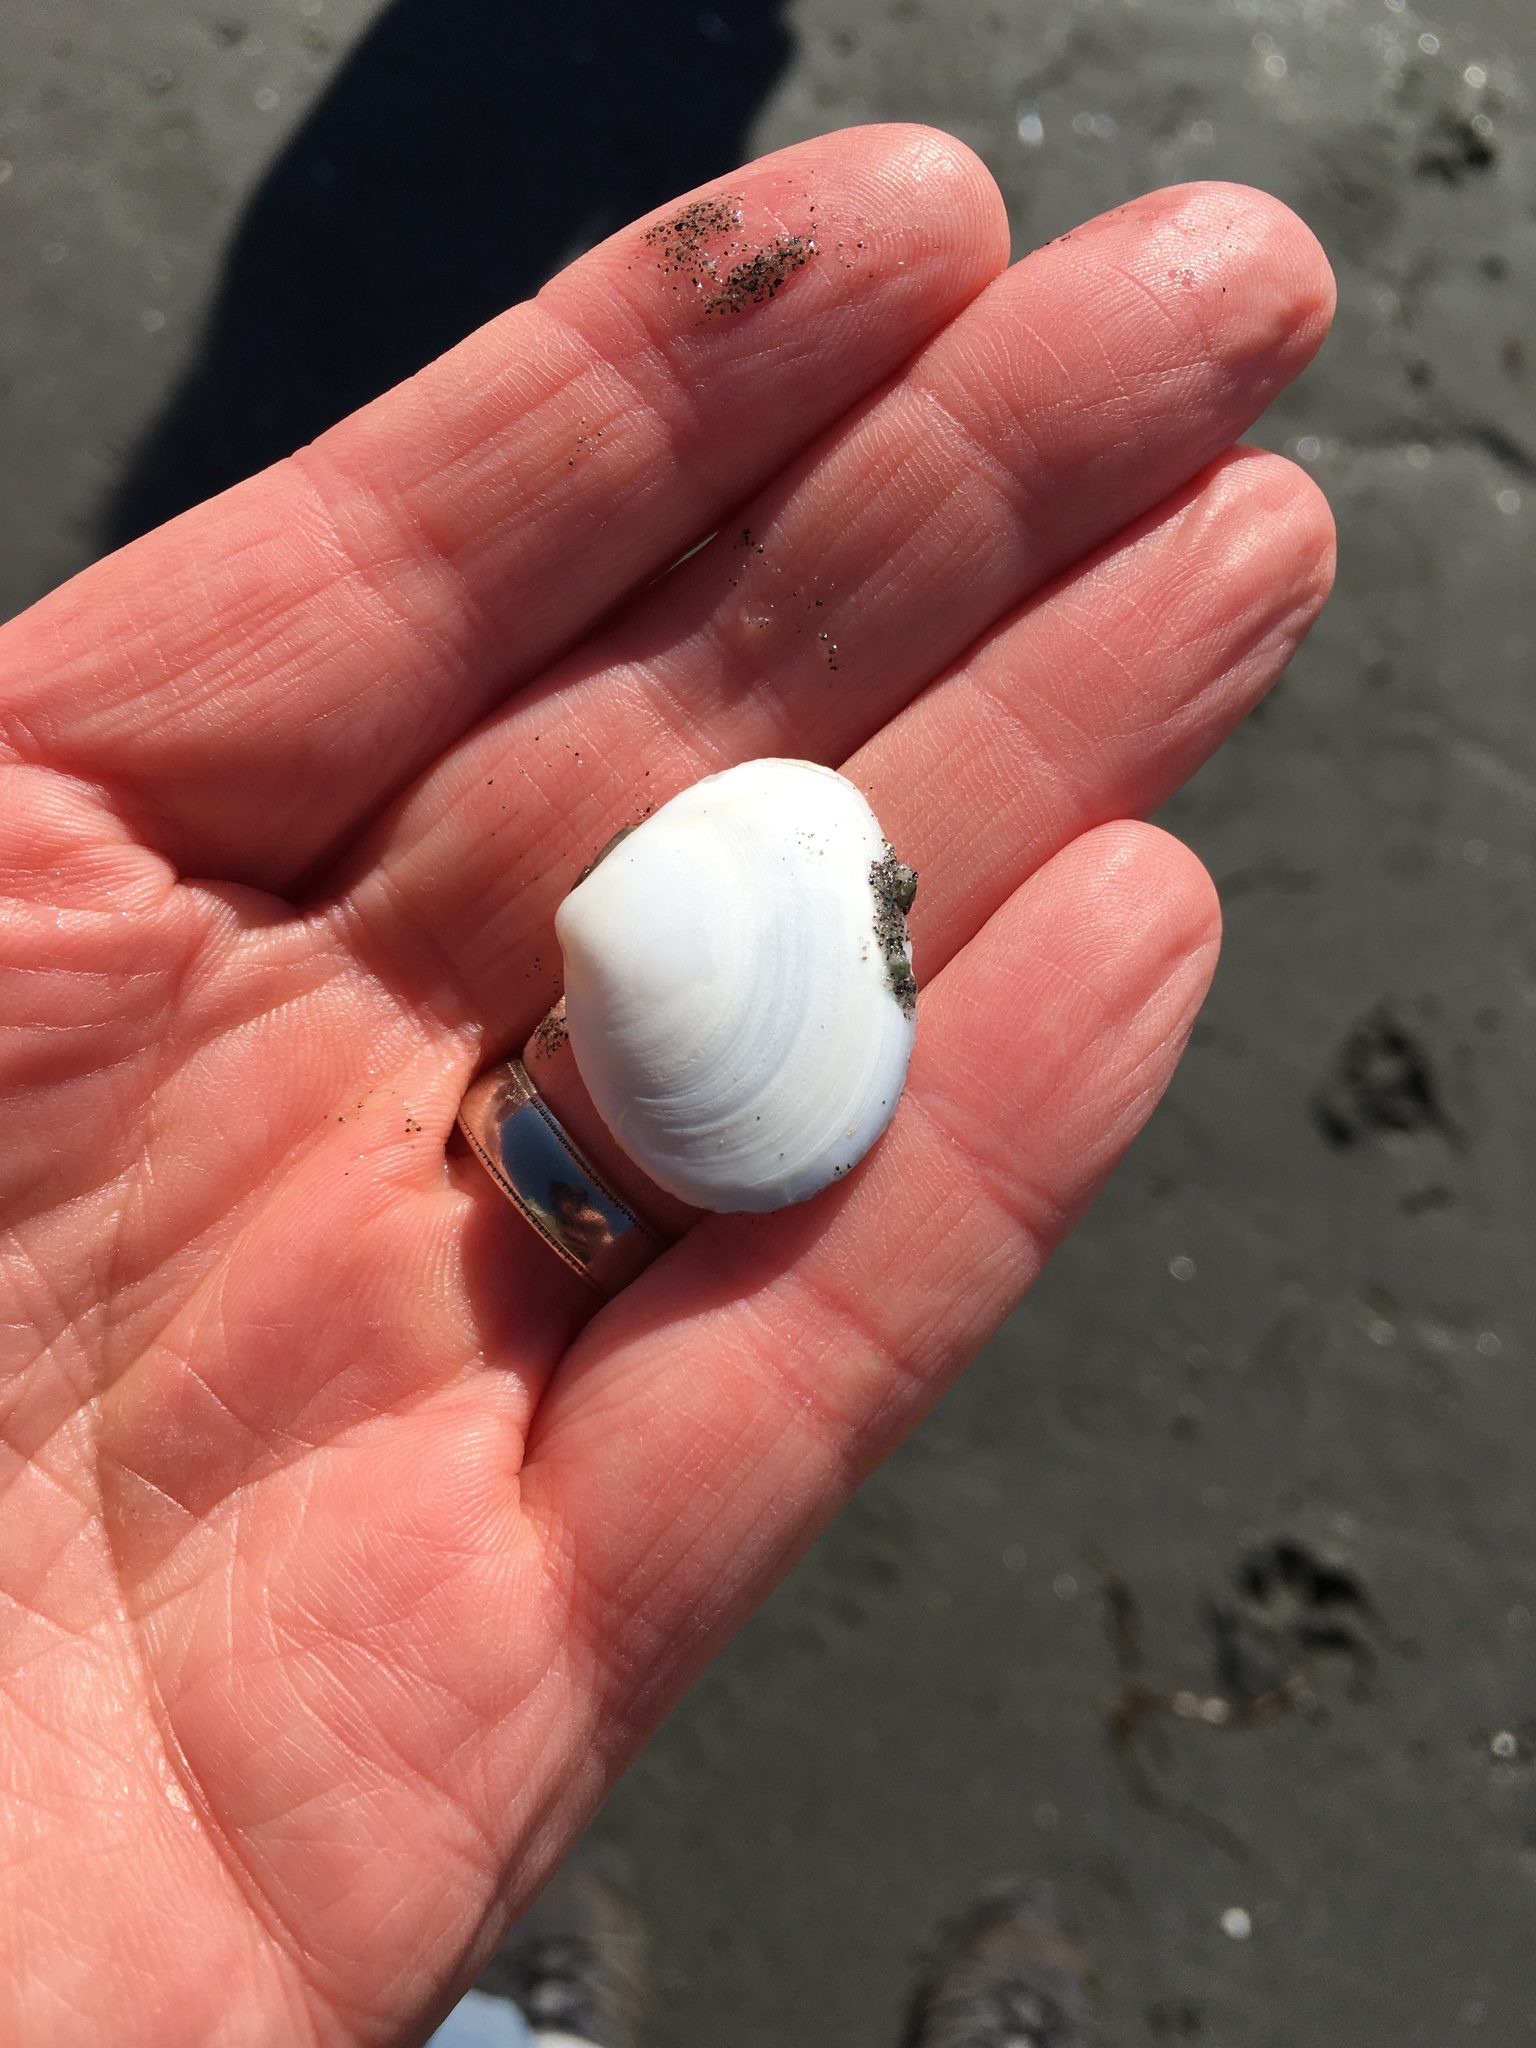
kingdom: Animalia
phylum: Mollusca
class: Bivalvia
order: Cardiida
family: Tellinidae
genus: Macoma
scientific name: Macoma nasuta
